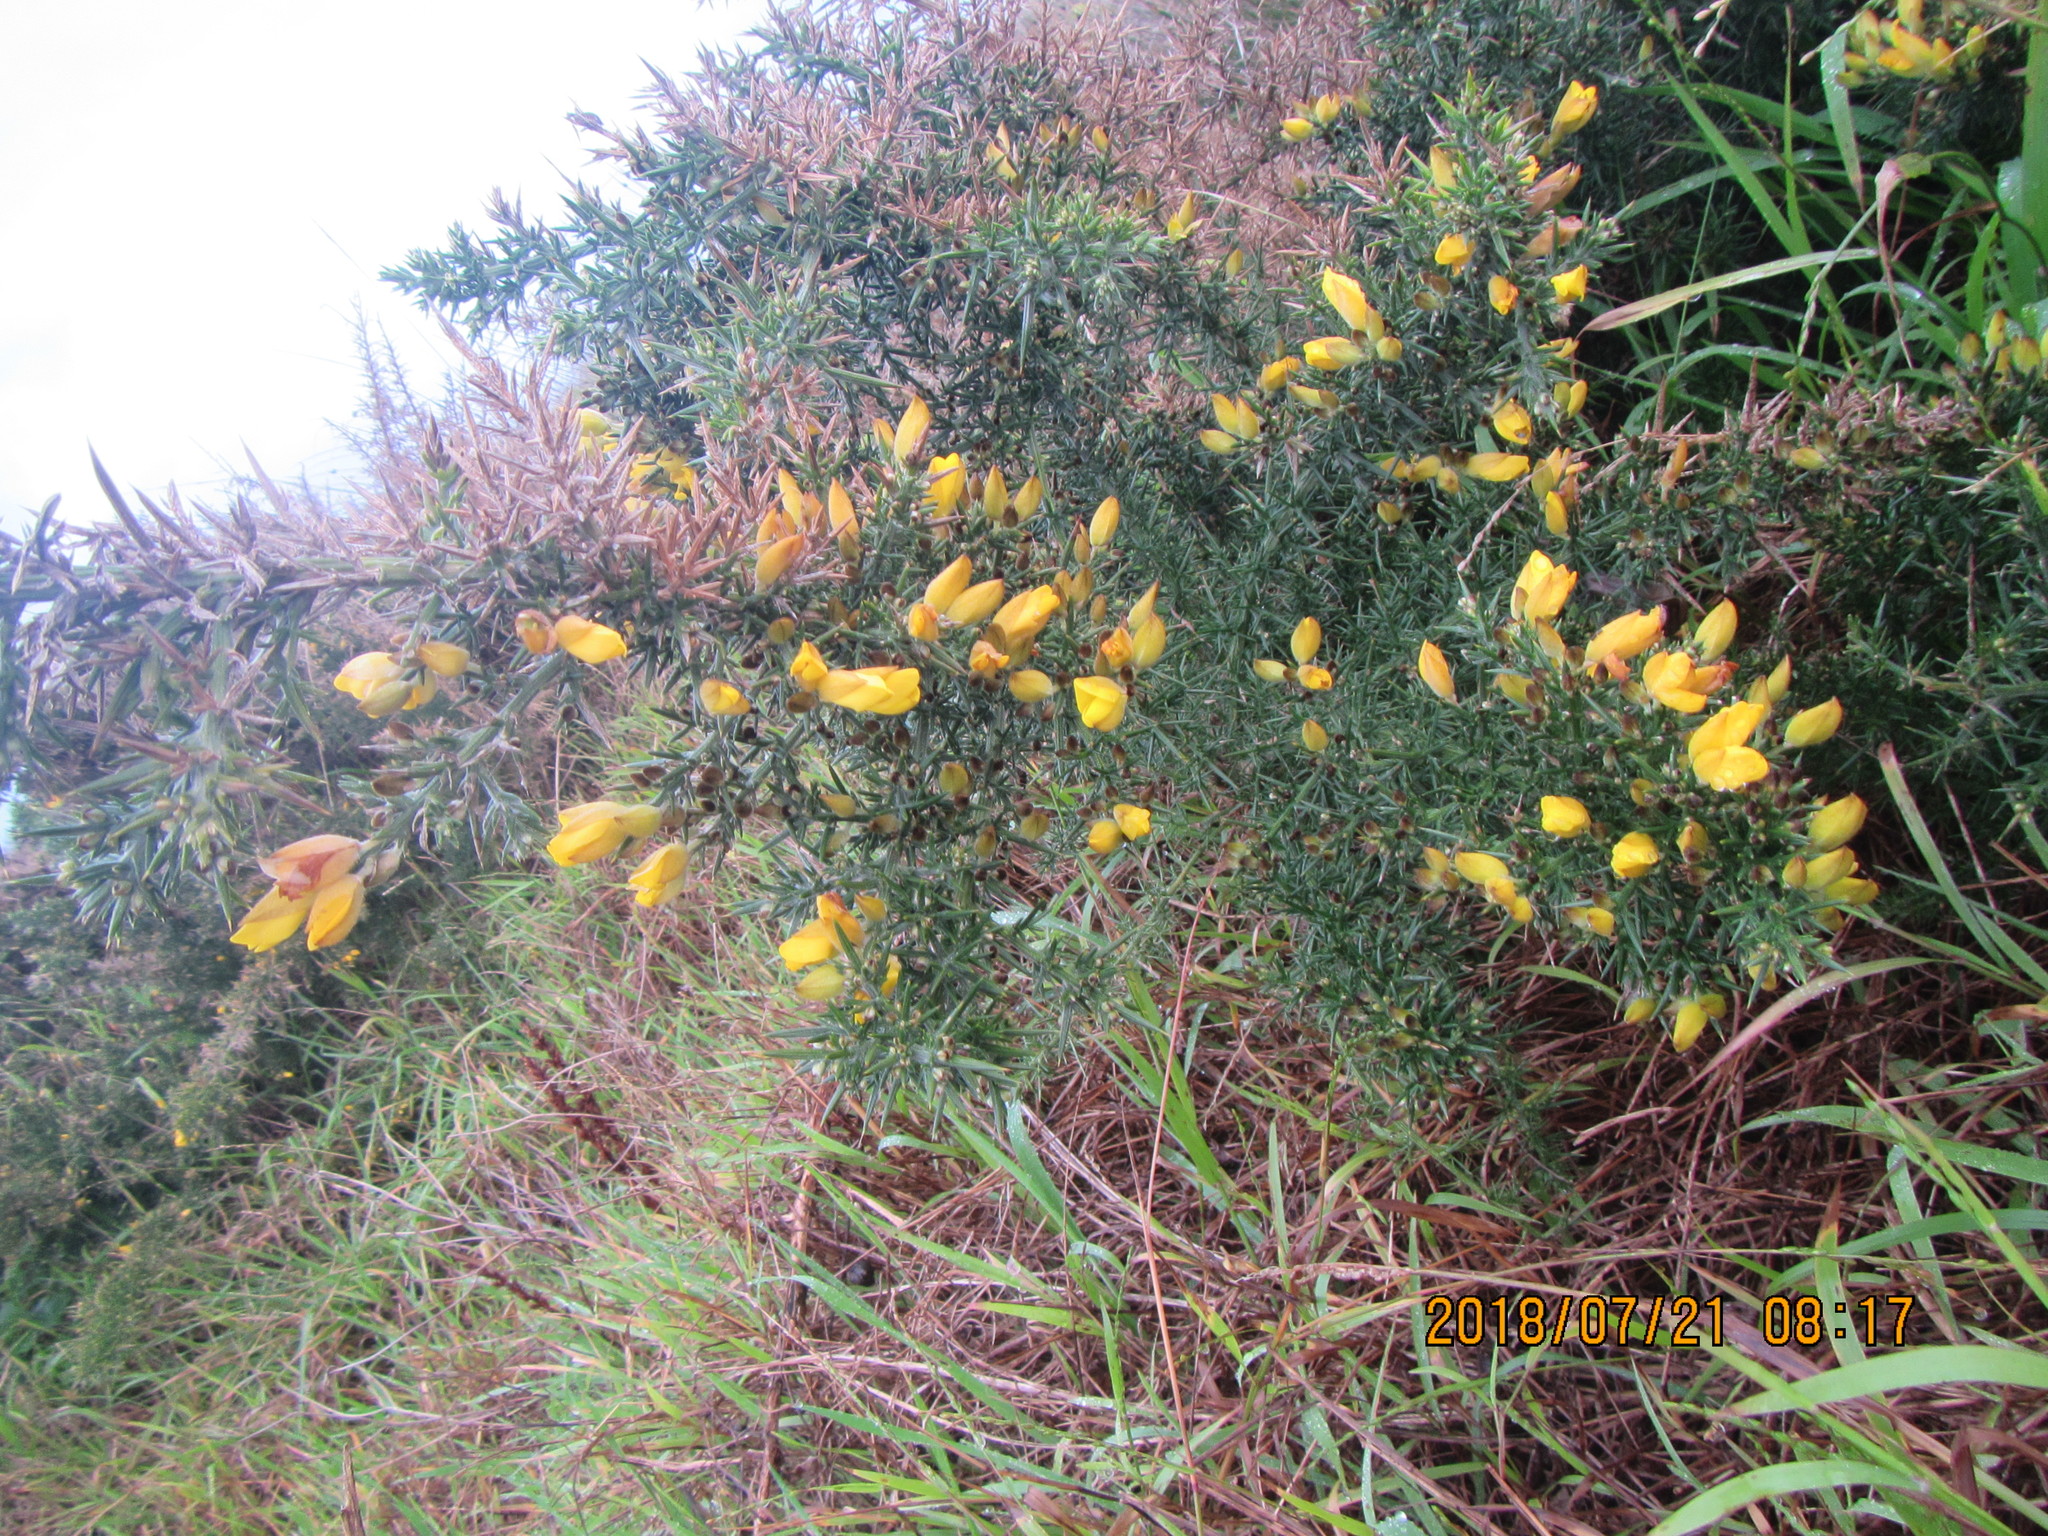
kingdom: Plantae
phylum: Tracheophyta
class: Magnoliopsida
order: Fabales
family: Fabaceae
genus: Ulex
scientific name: Ulex europaeus
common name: Common gorse
